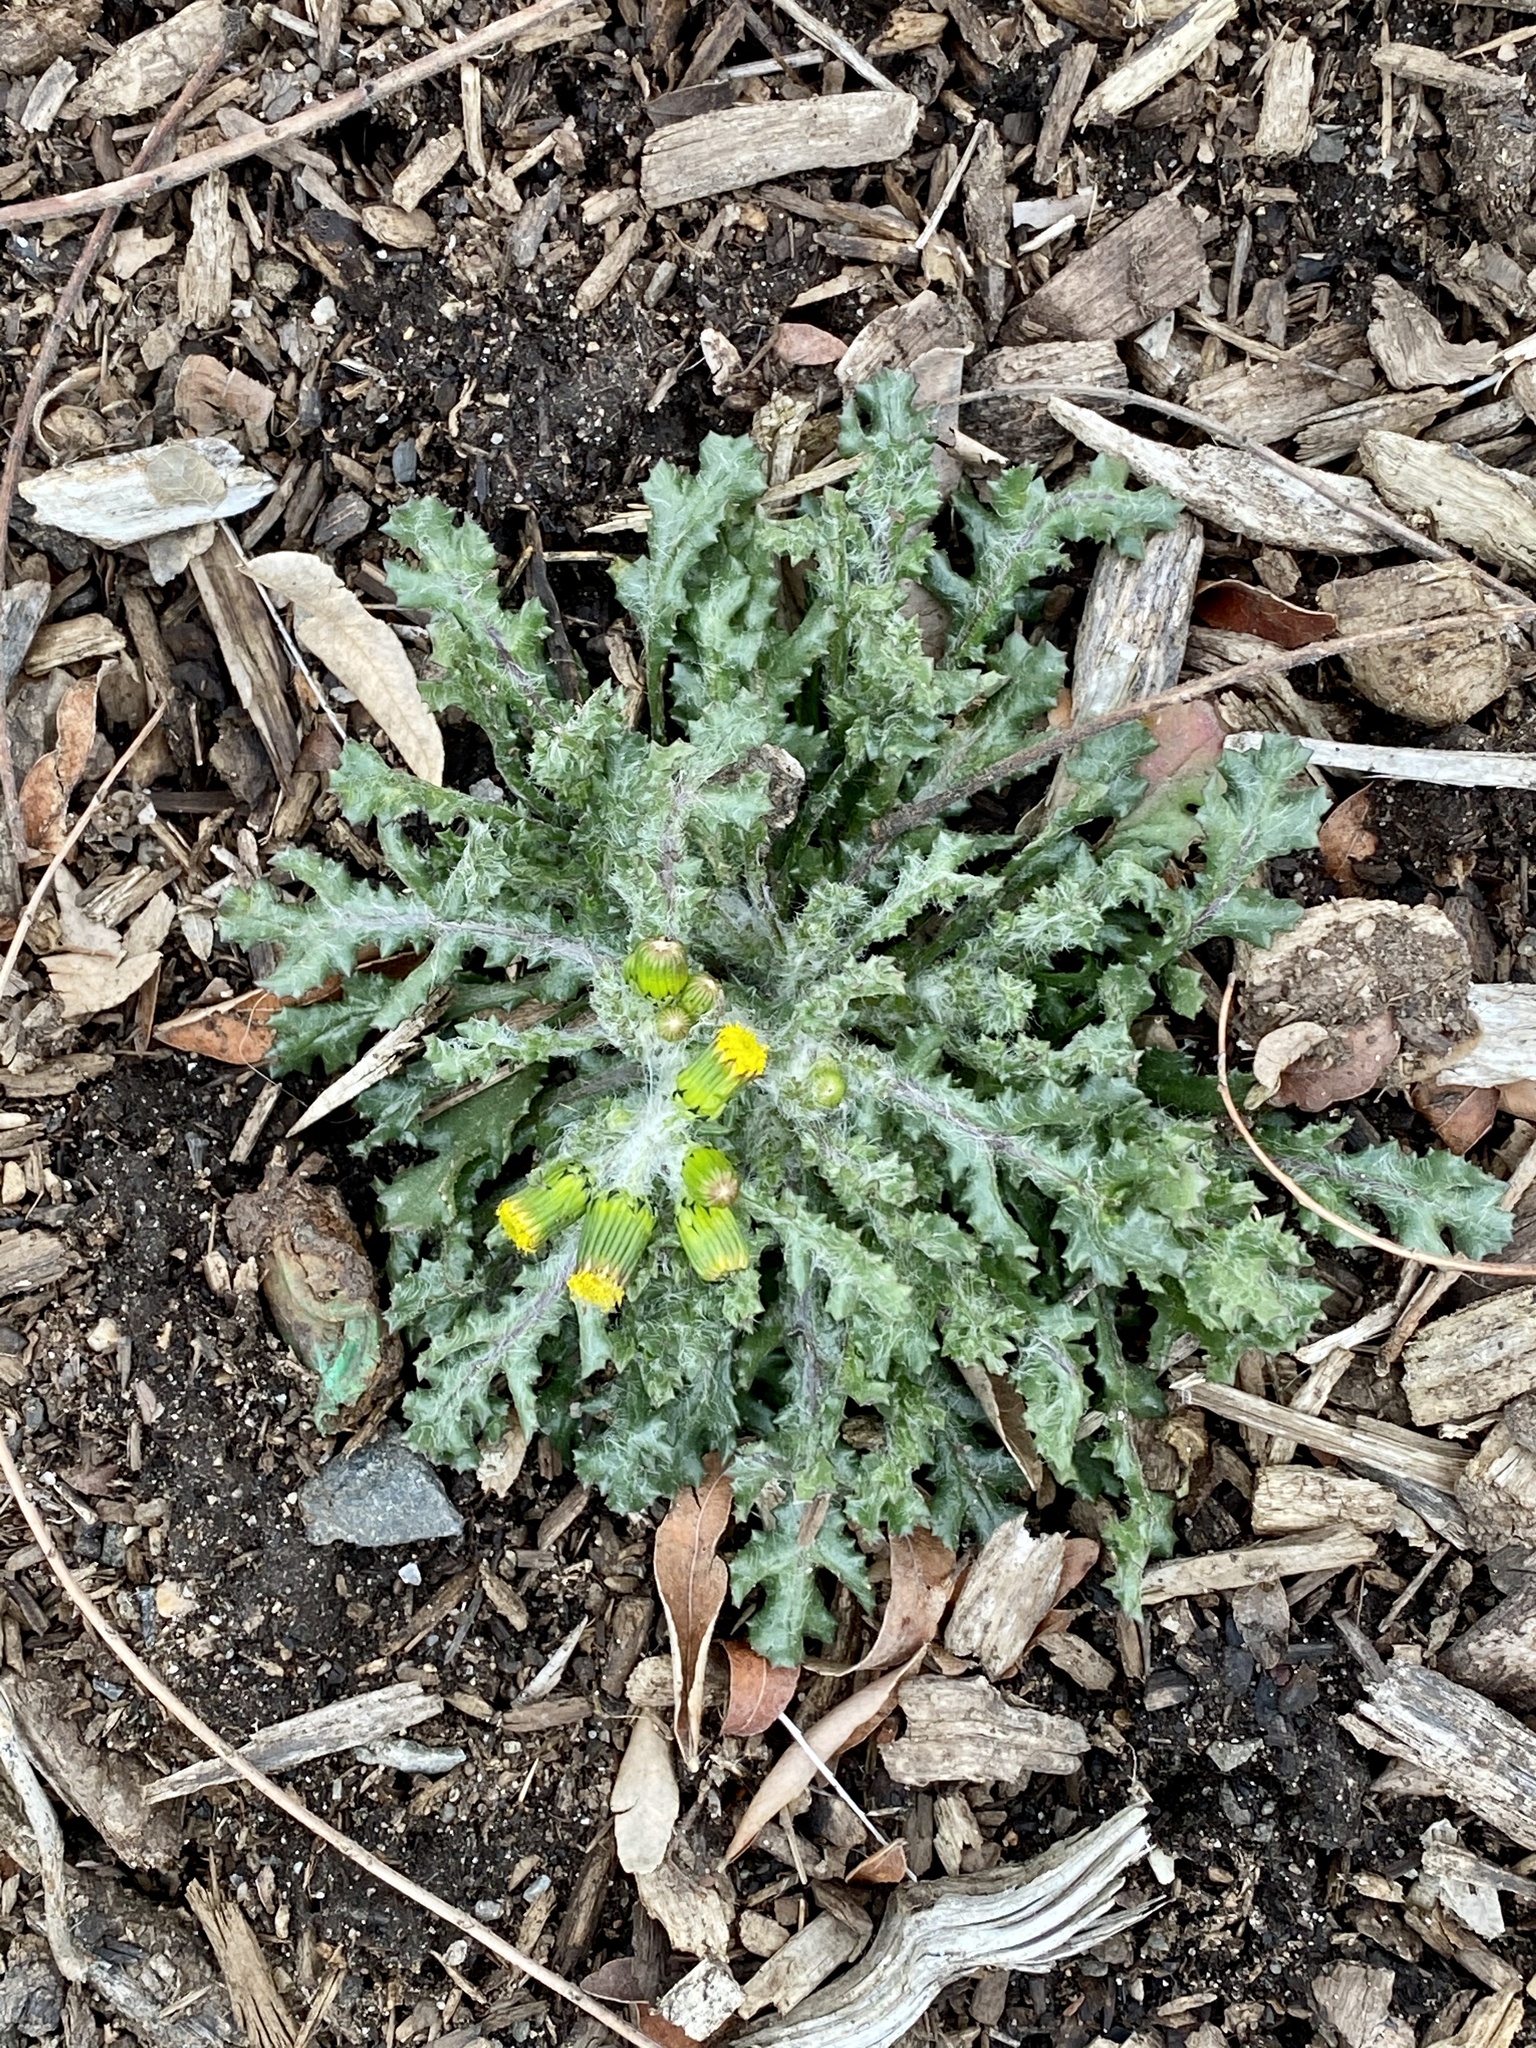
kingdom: Plantae
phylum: Tracheophyta
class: Magnoliopsida
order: Asterales
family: Asteraceae
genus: Senecio
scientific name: Senecio vulgaris
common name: Old-man-in-the-spring
